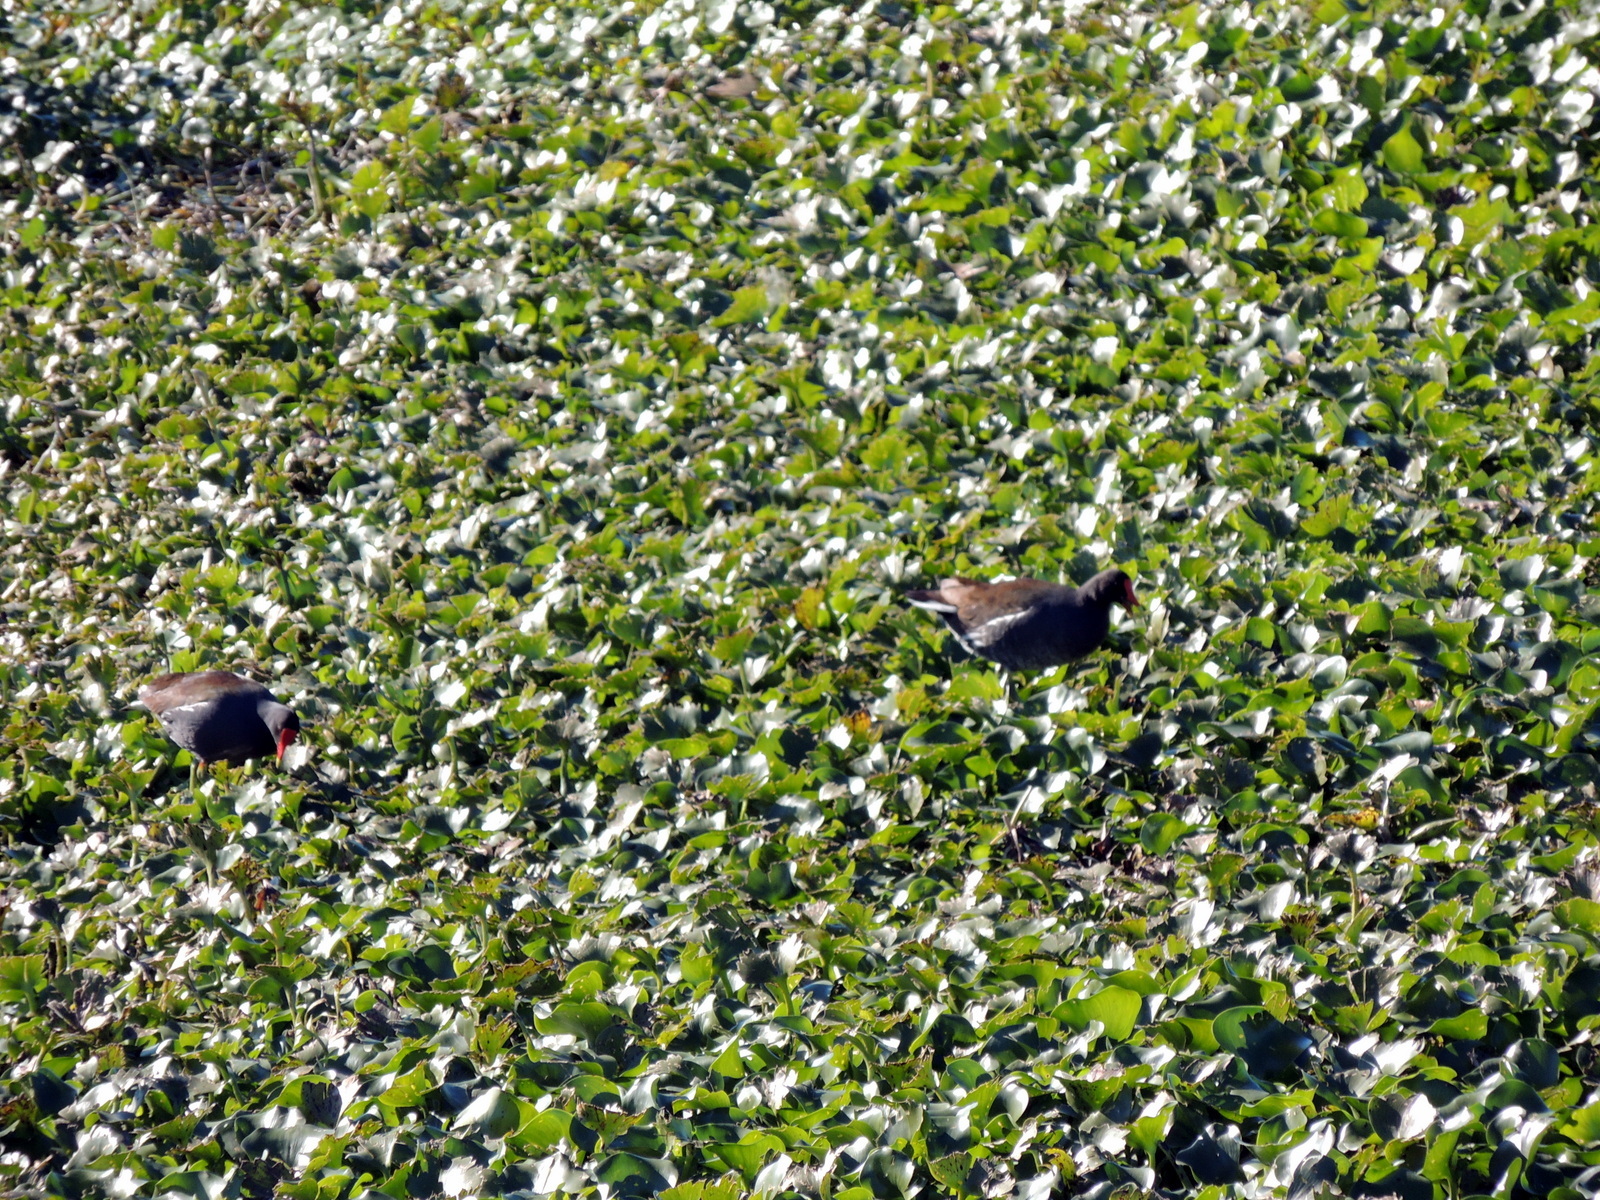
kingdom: Animalia
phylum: Chordata
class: Aves
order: Gruiformes
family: Rallidae
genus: Gallinula
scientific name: Gallinula chloropus
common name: Common moorhen
